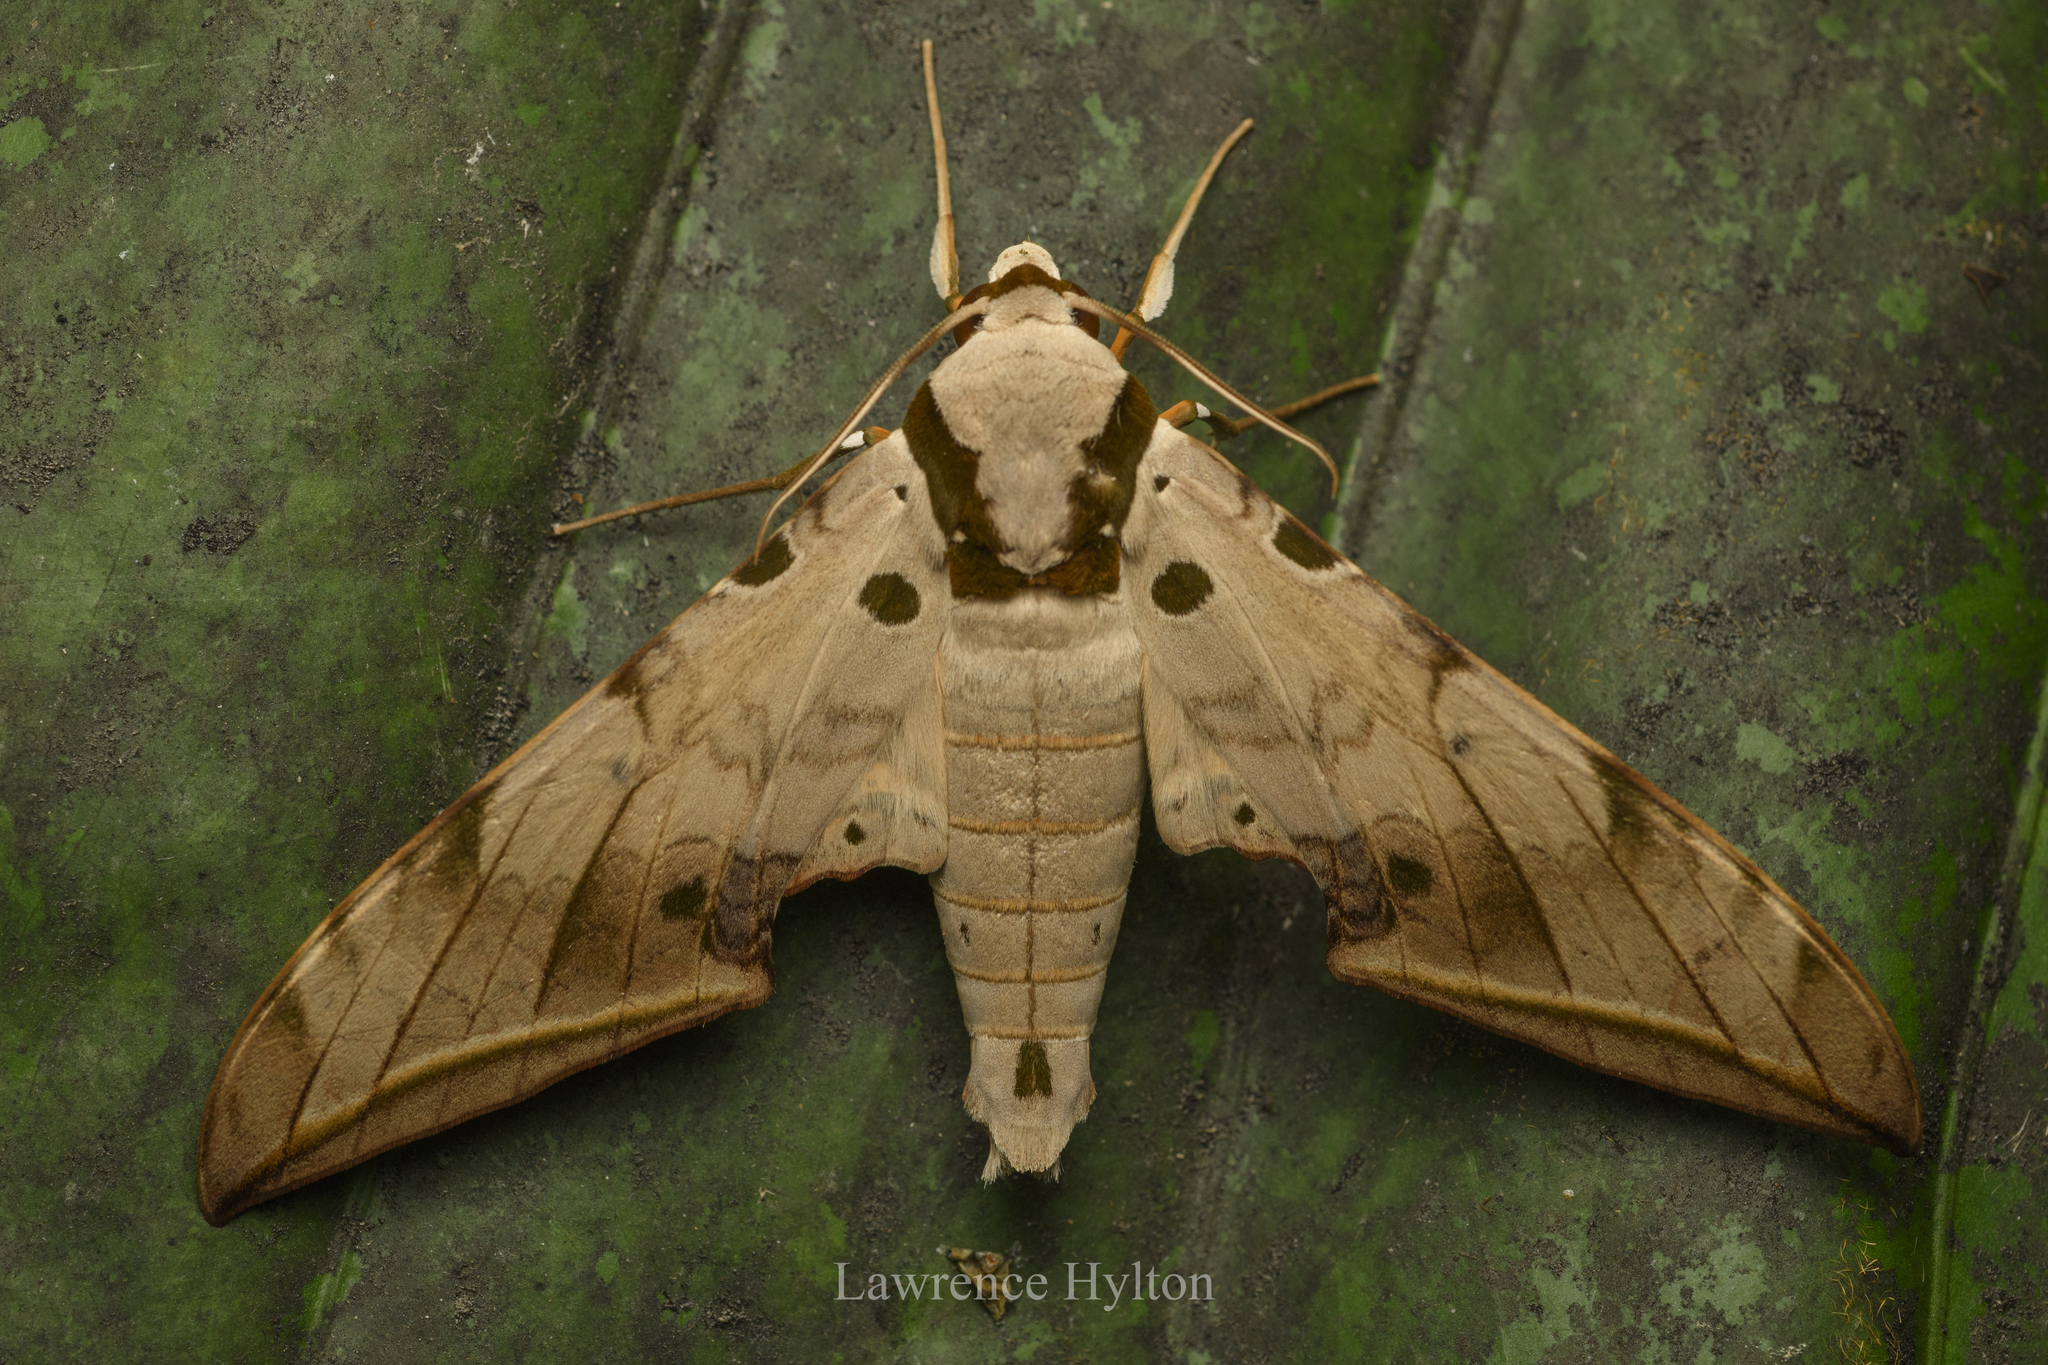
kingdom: Animalia
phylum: Arthropoda
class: Insecta
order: Lepidoptera
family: Sphingidae
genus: Ambulyx
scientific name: Ambulyx sericeipennis
